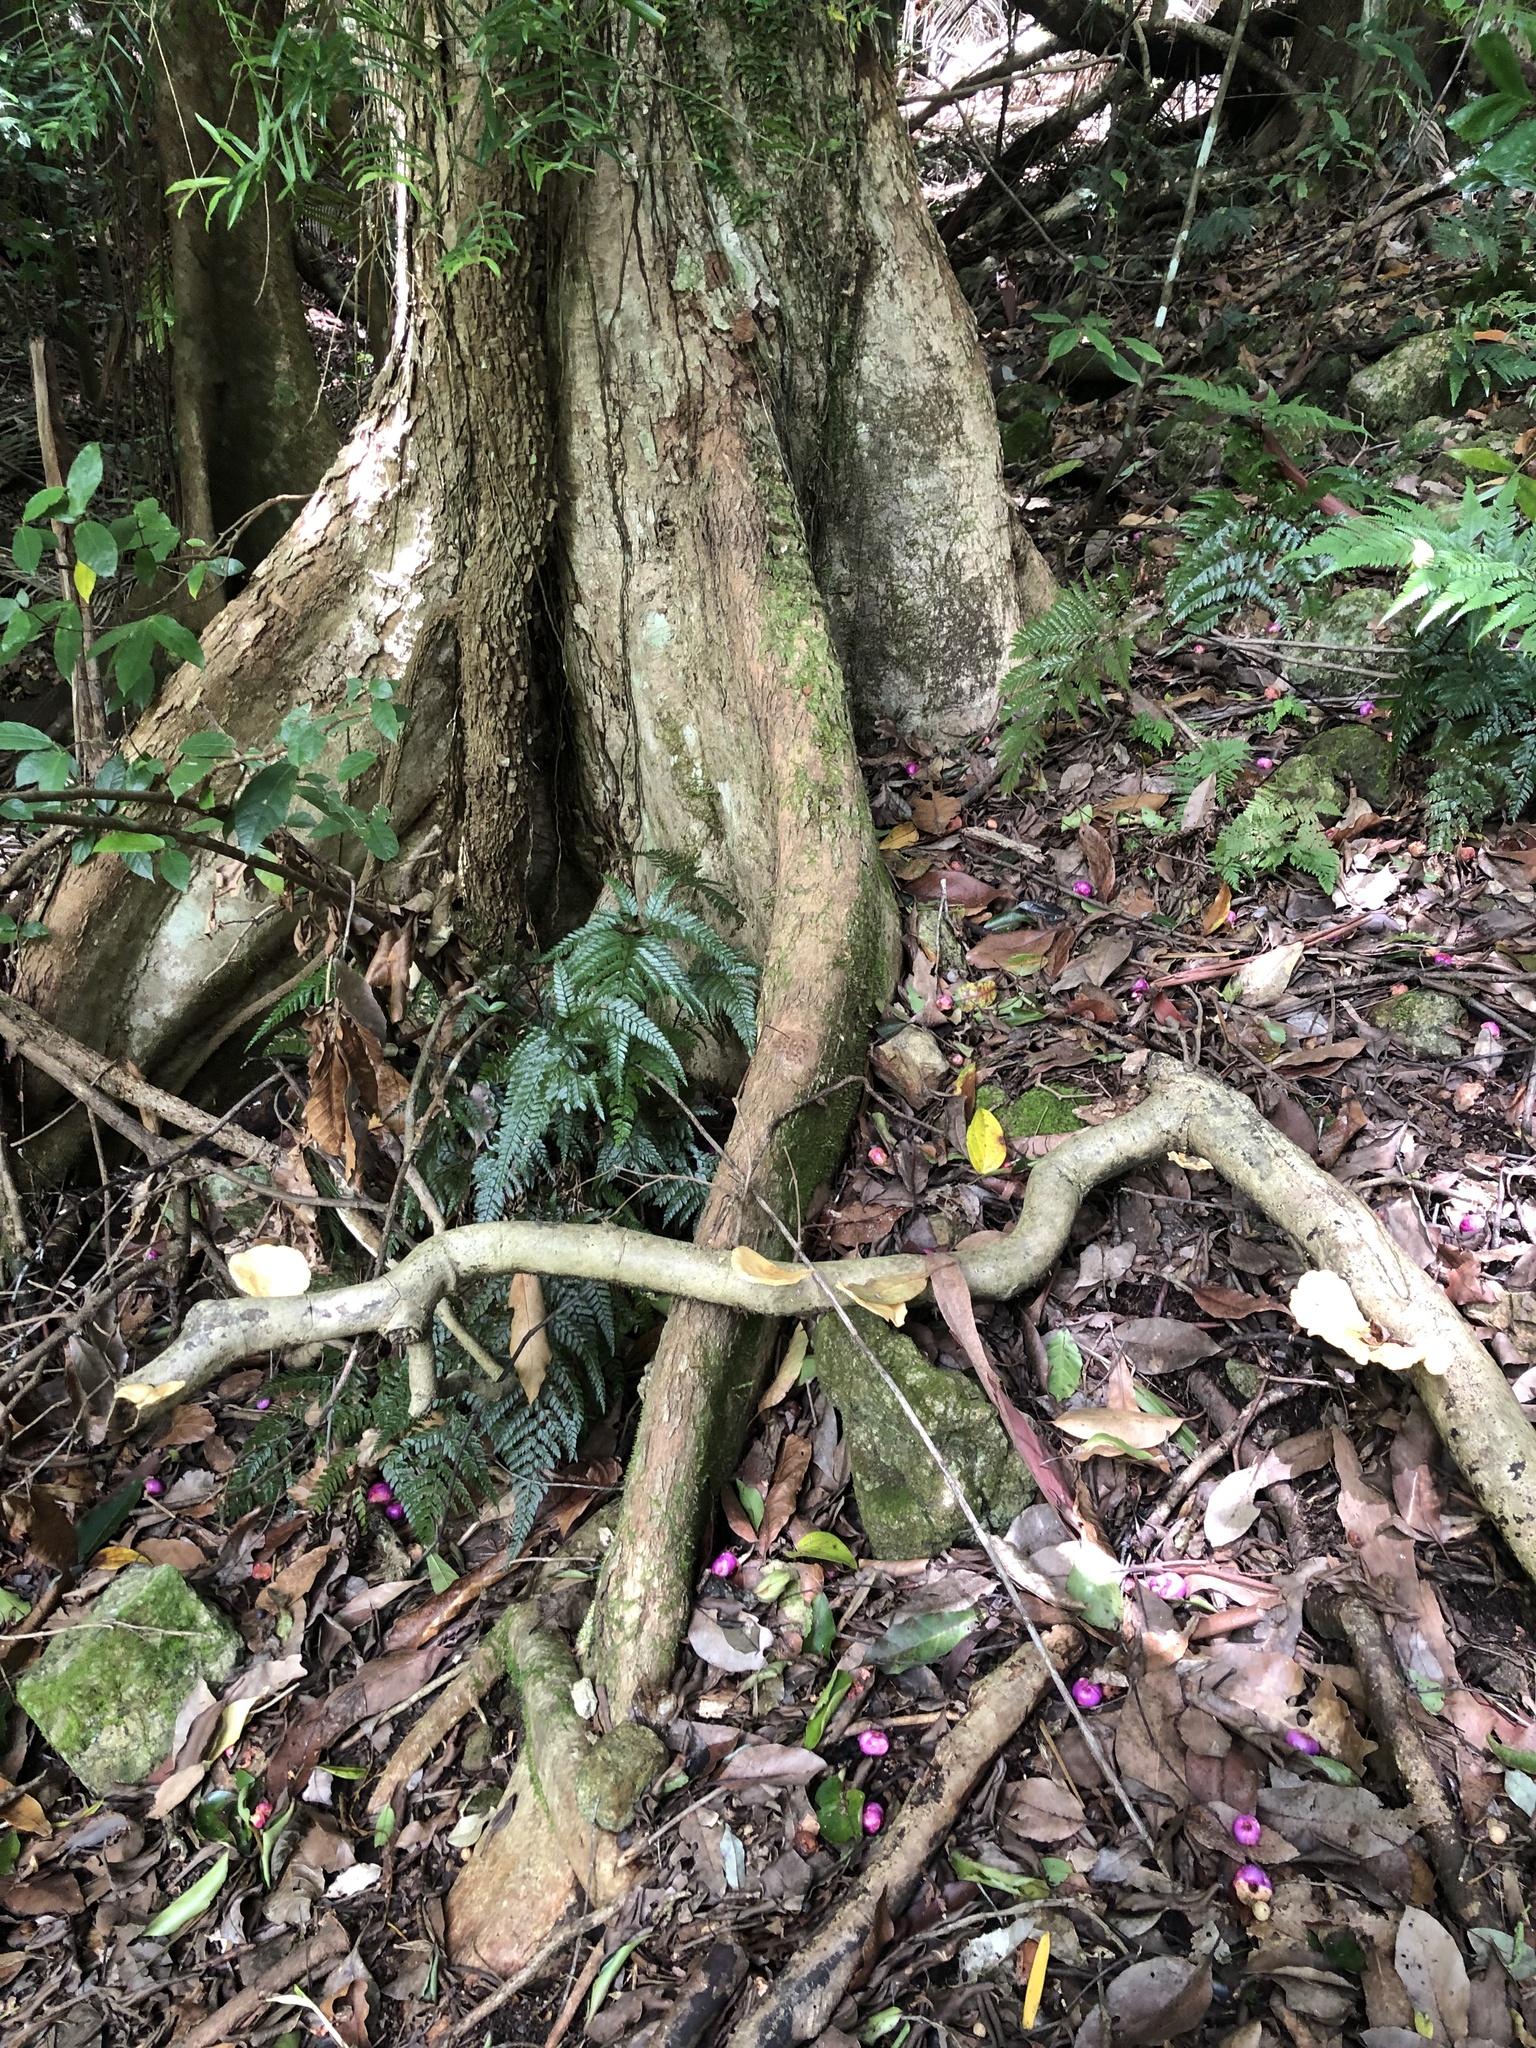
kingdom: Plantae
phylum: Tracheophyta
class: Magnoliopsida
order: Myrtales
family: Myrtaceae
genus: Syzygium
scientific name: Syzygium crebrinerve
